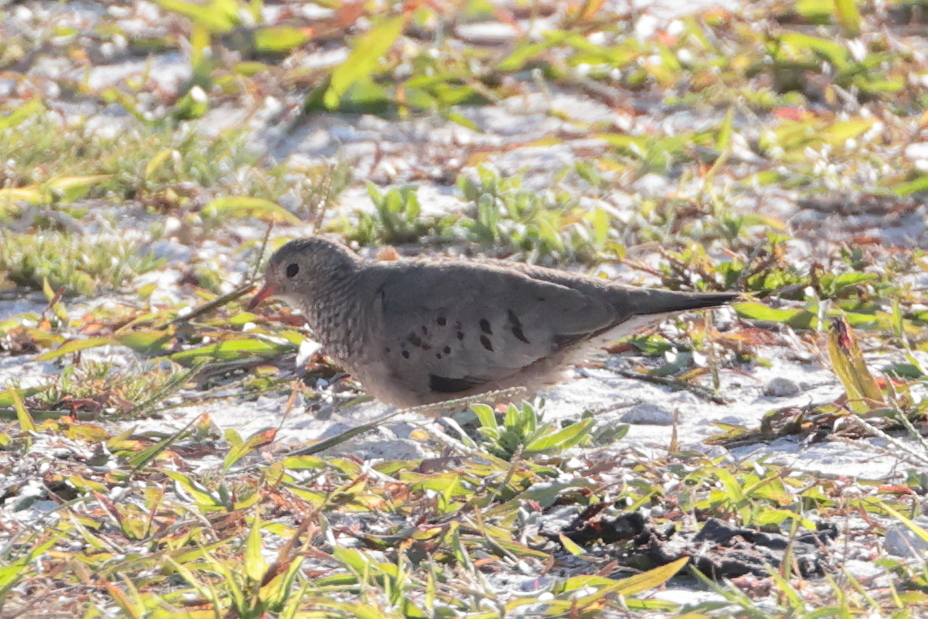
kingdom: Animalia
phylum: Chordata
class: Aves
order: Columbiformes
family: Columbidae
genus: Columbina
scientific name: Columbina passerina
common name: Common ground-dove
